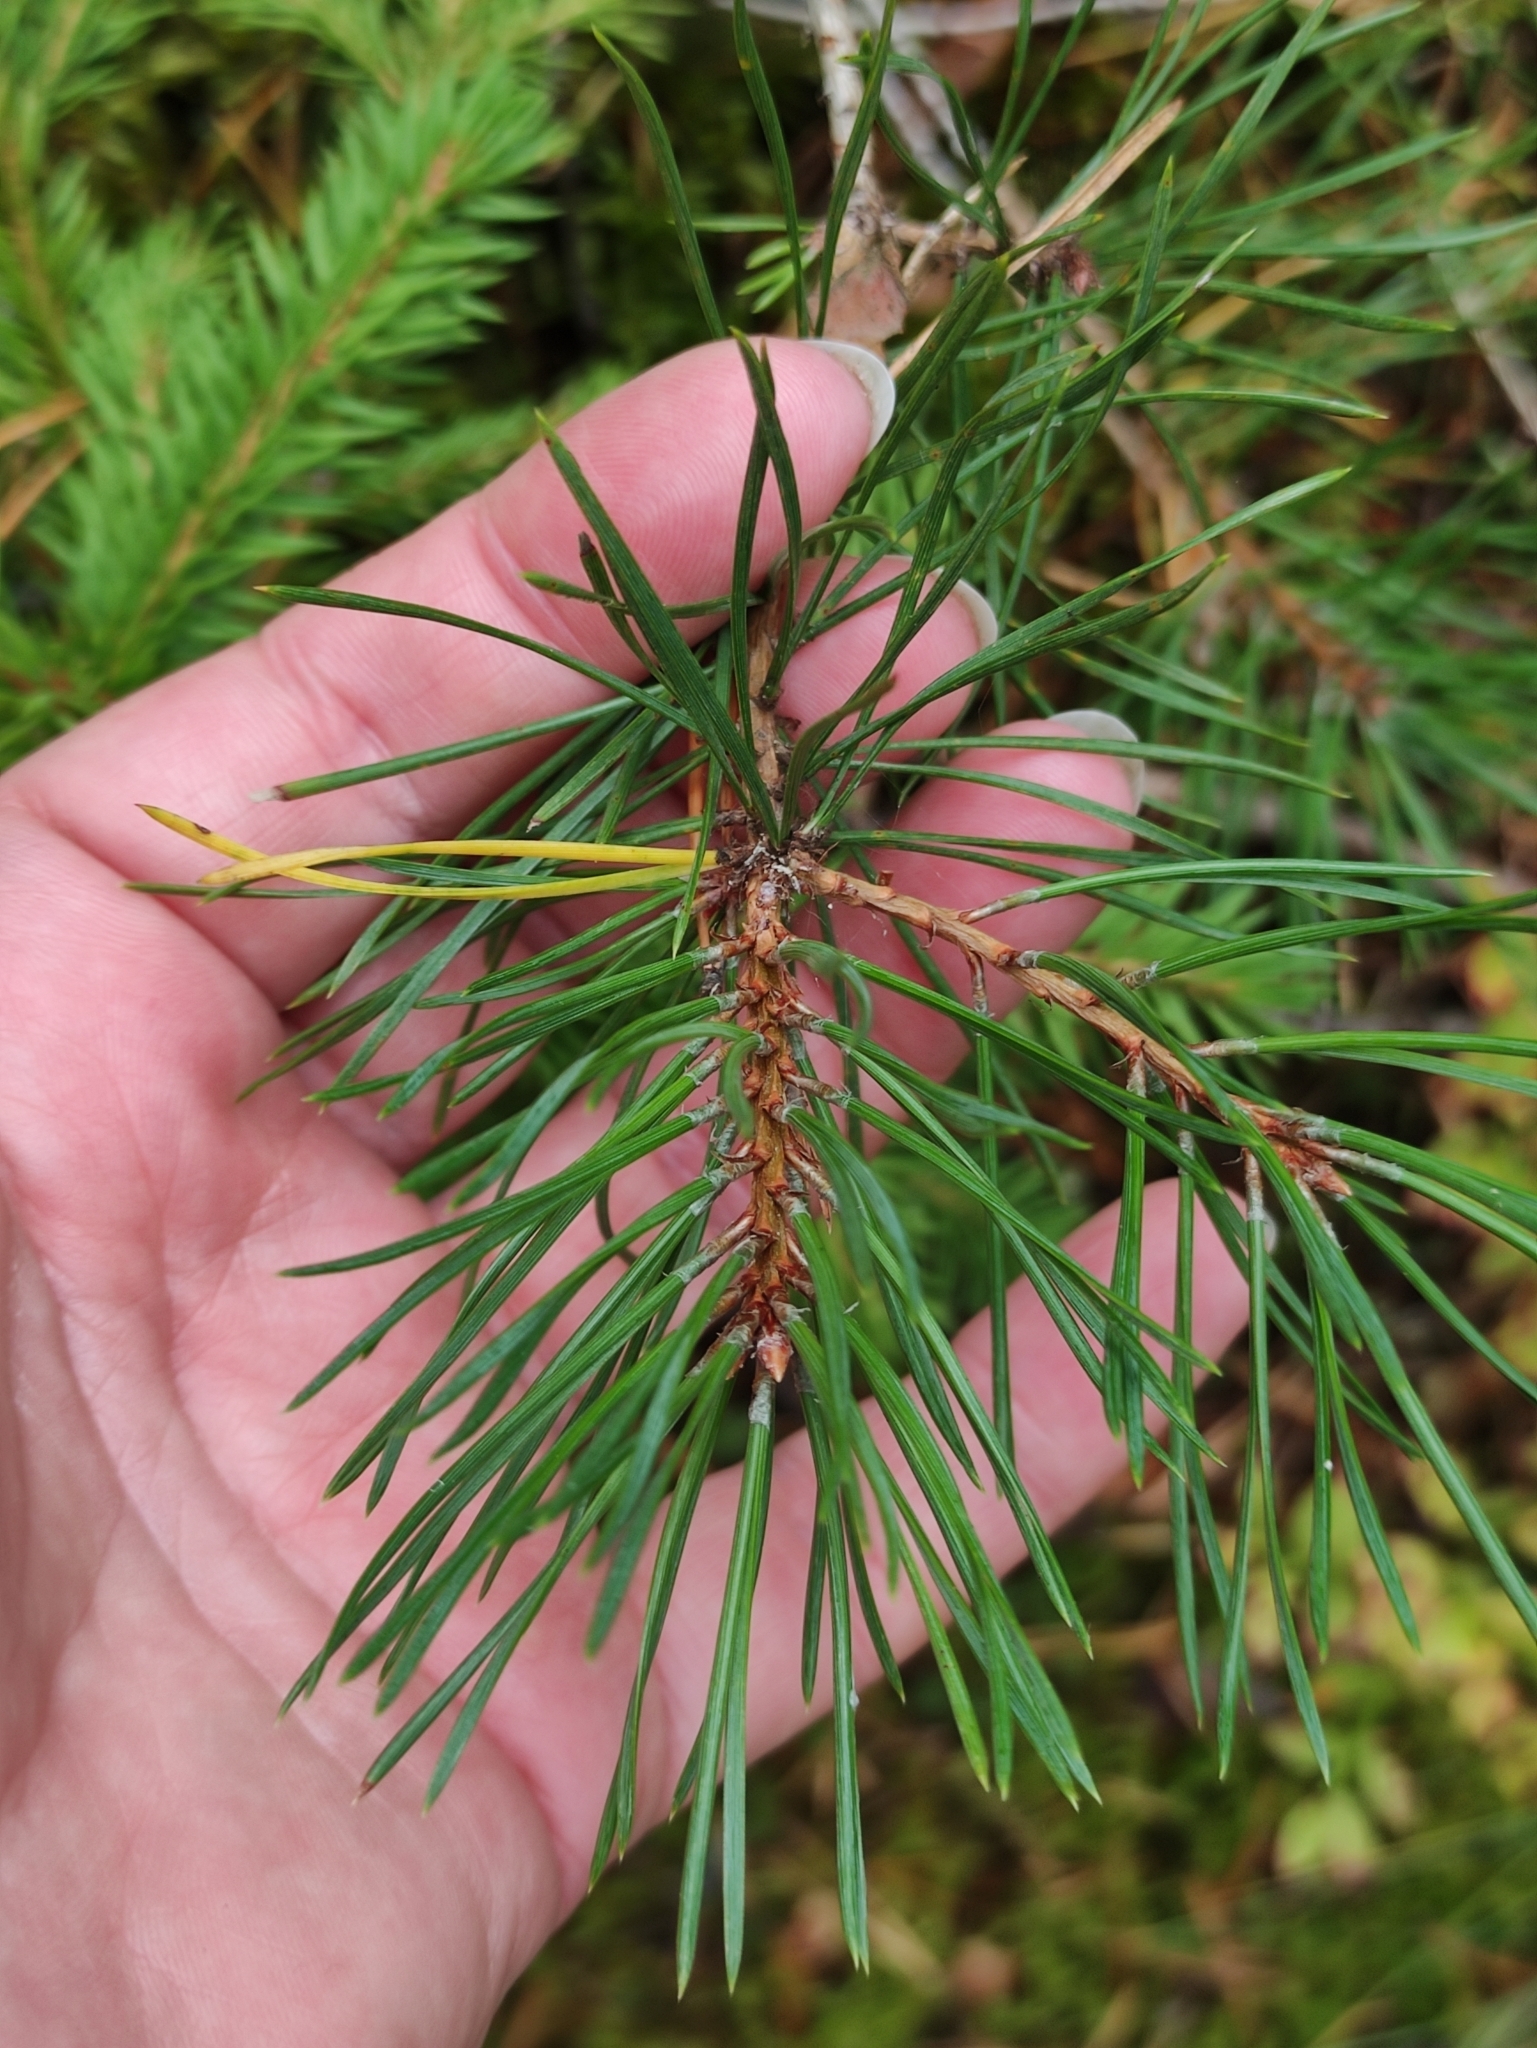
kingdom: Plantae
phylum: Tracheophyta
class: Pinopsida
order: Pinales
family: Pinaceae
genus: Pinus
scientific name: Pinus sylvestris
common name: Scots pine
